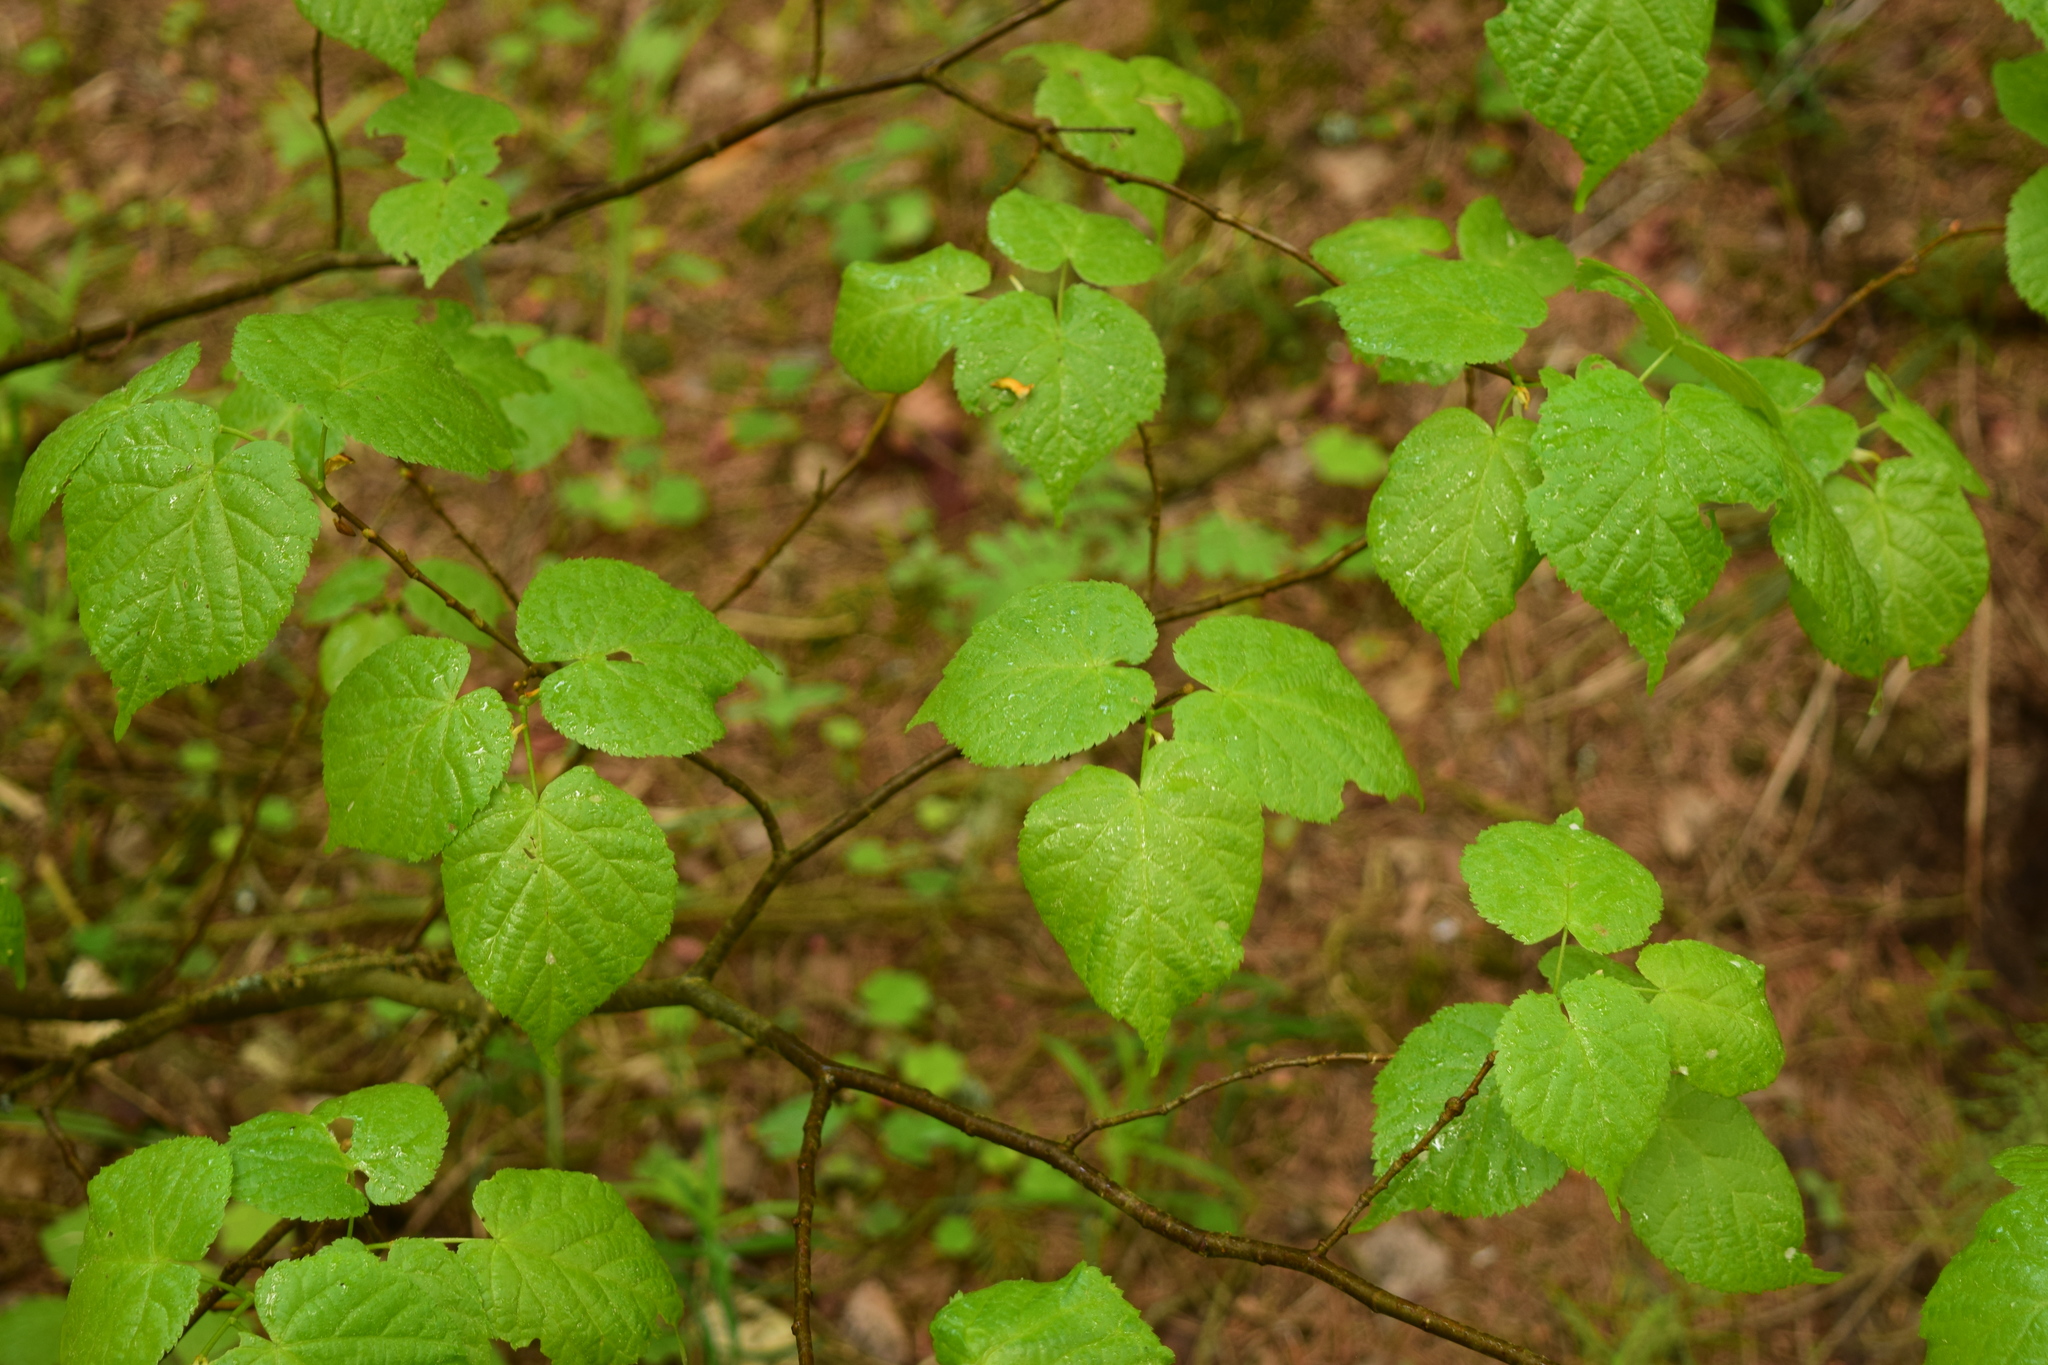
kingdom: Plantae
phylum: Tracheophyta
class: Magnoliopsida
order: Malvales
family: Malvaceae
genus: Tilia
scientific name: Tilia cordata
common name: Small-leaved lime
